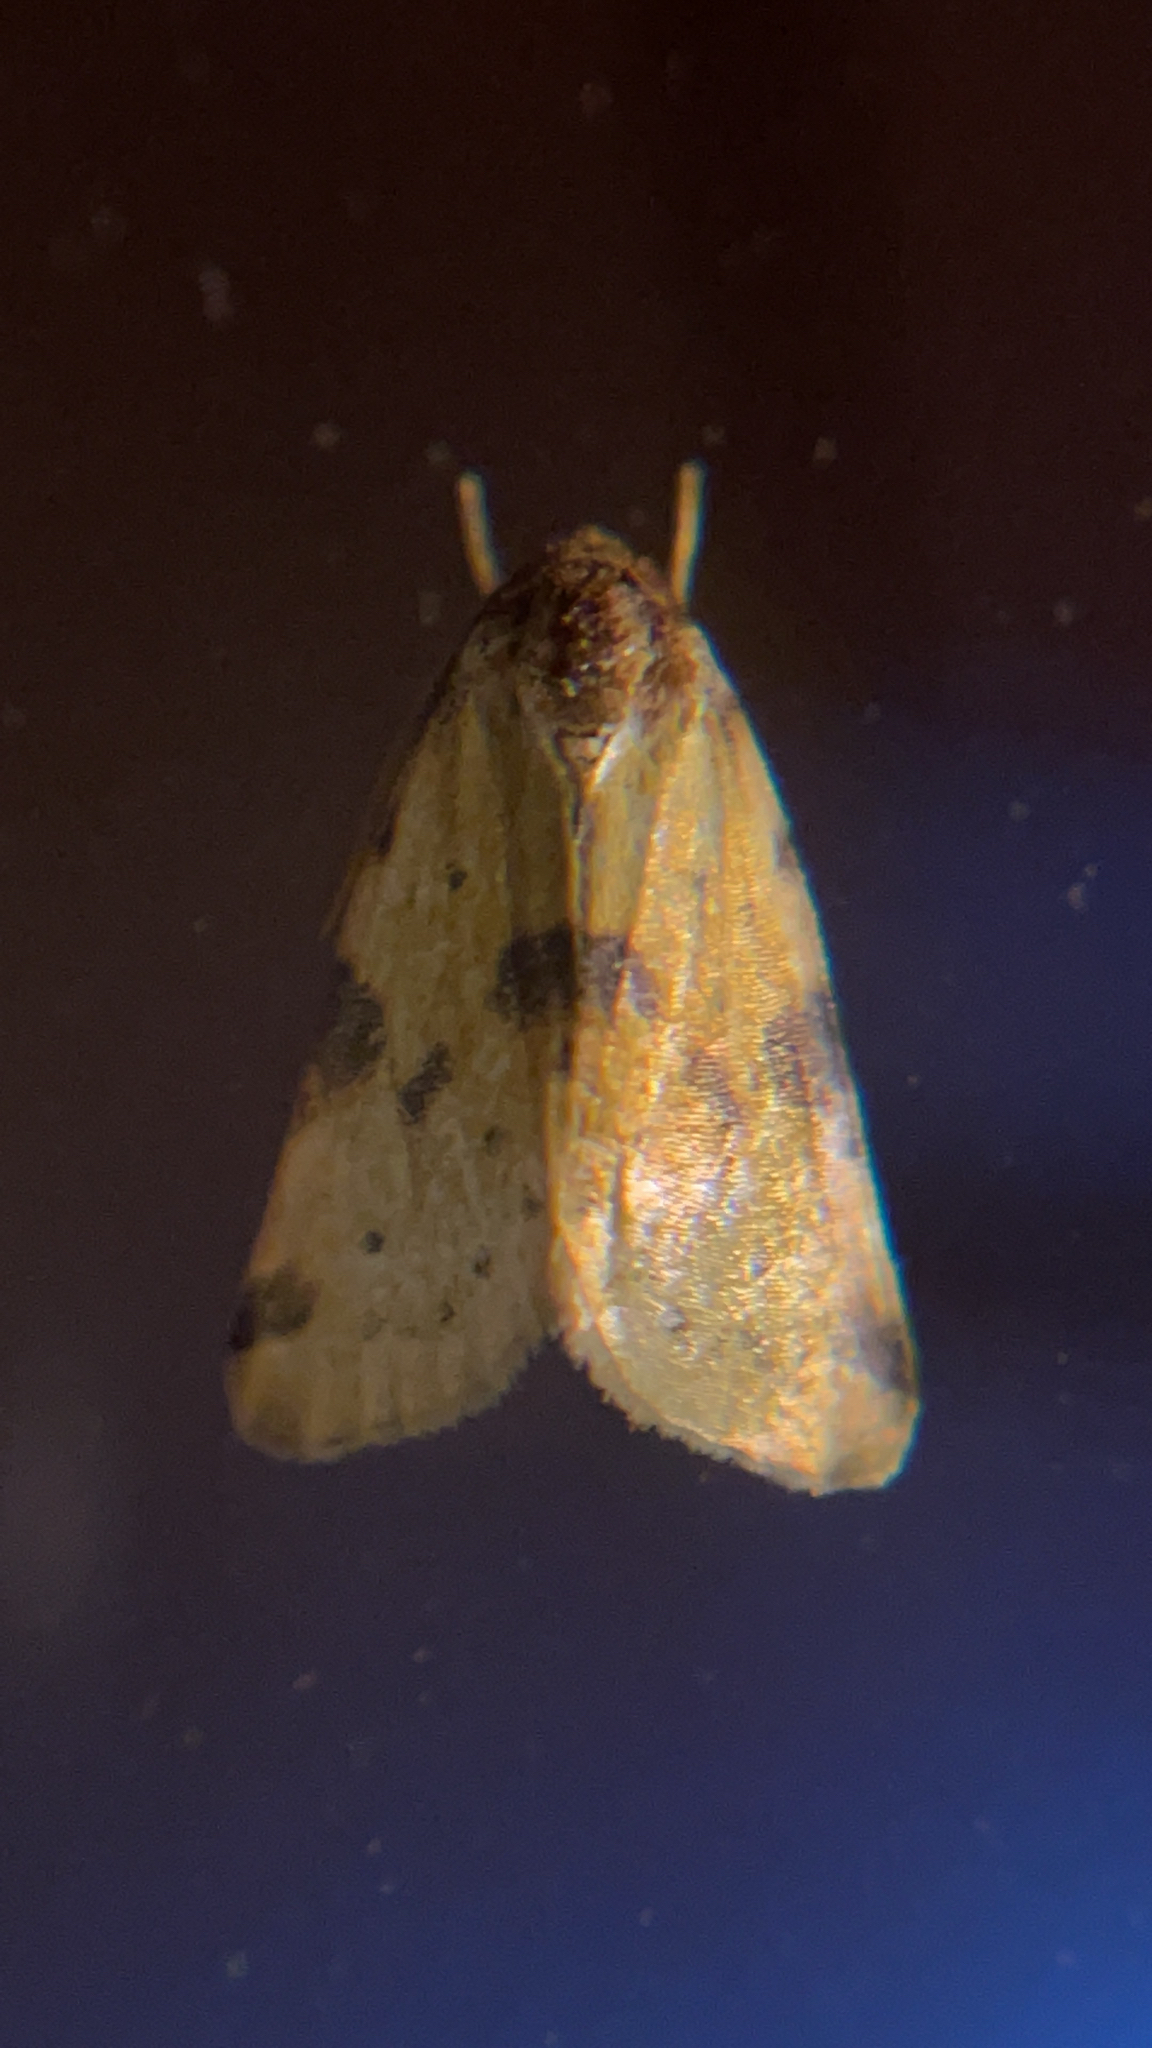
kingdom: Animalia
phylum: Arthropoda
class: Insecta
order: Lepidoptera
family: Noctuidae
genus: Azenia
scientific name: Azenia obtusa
